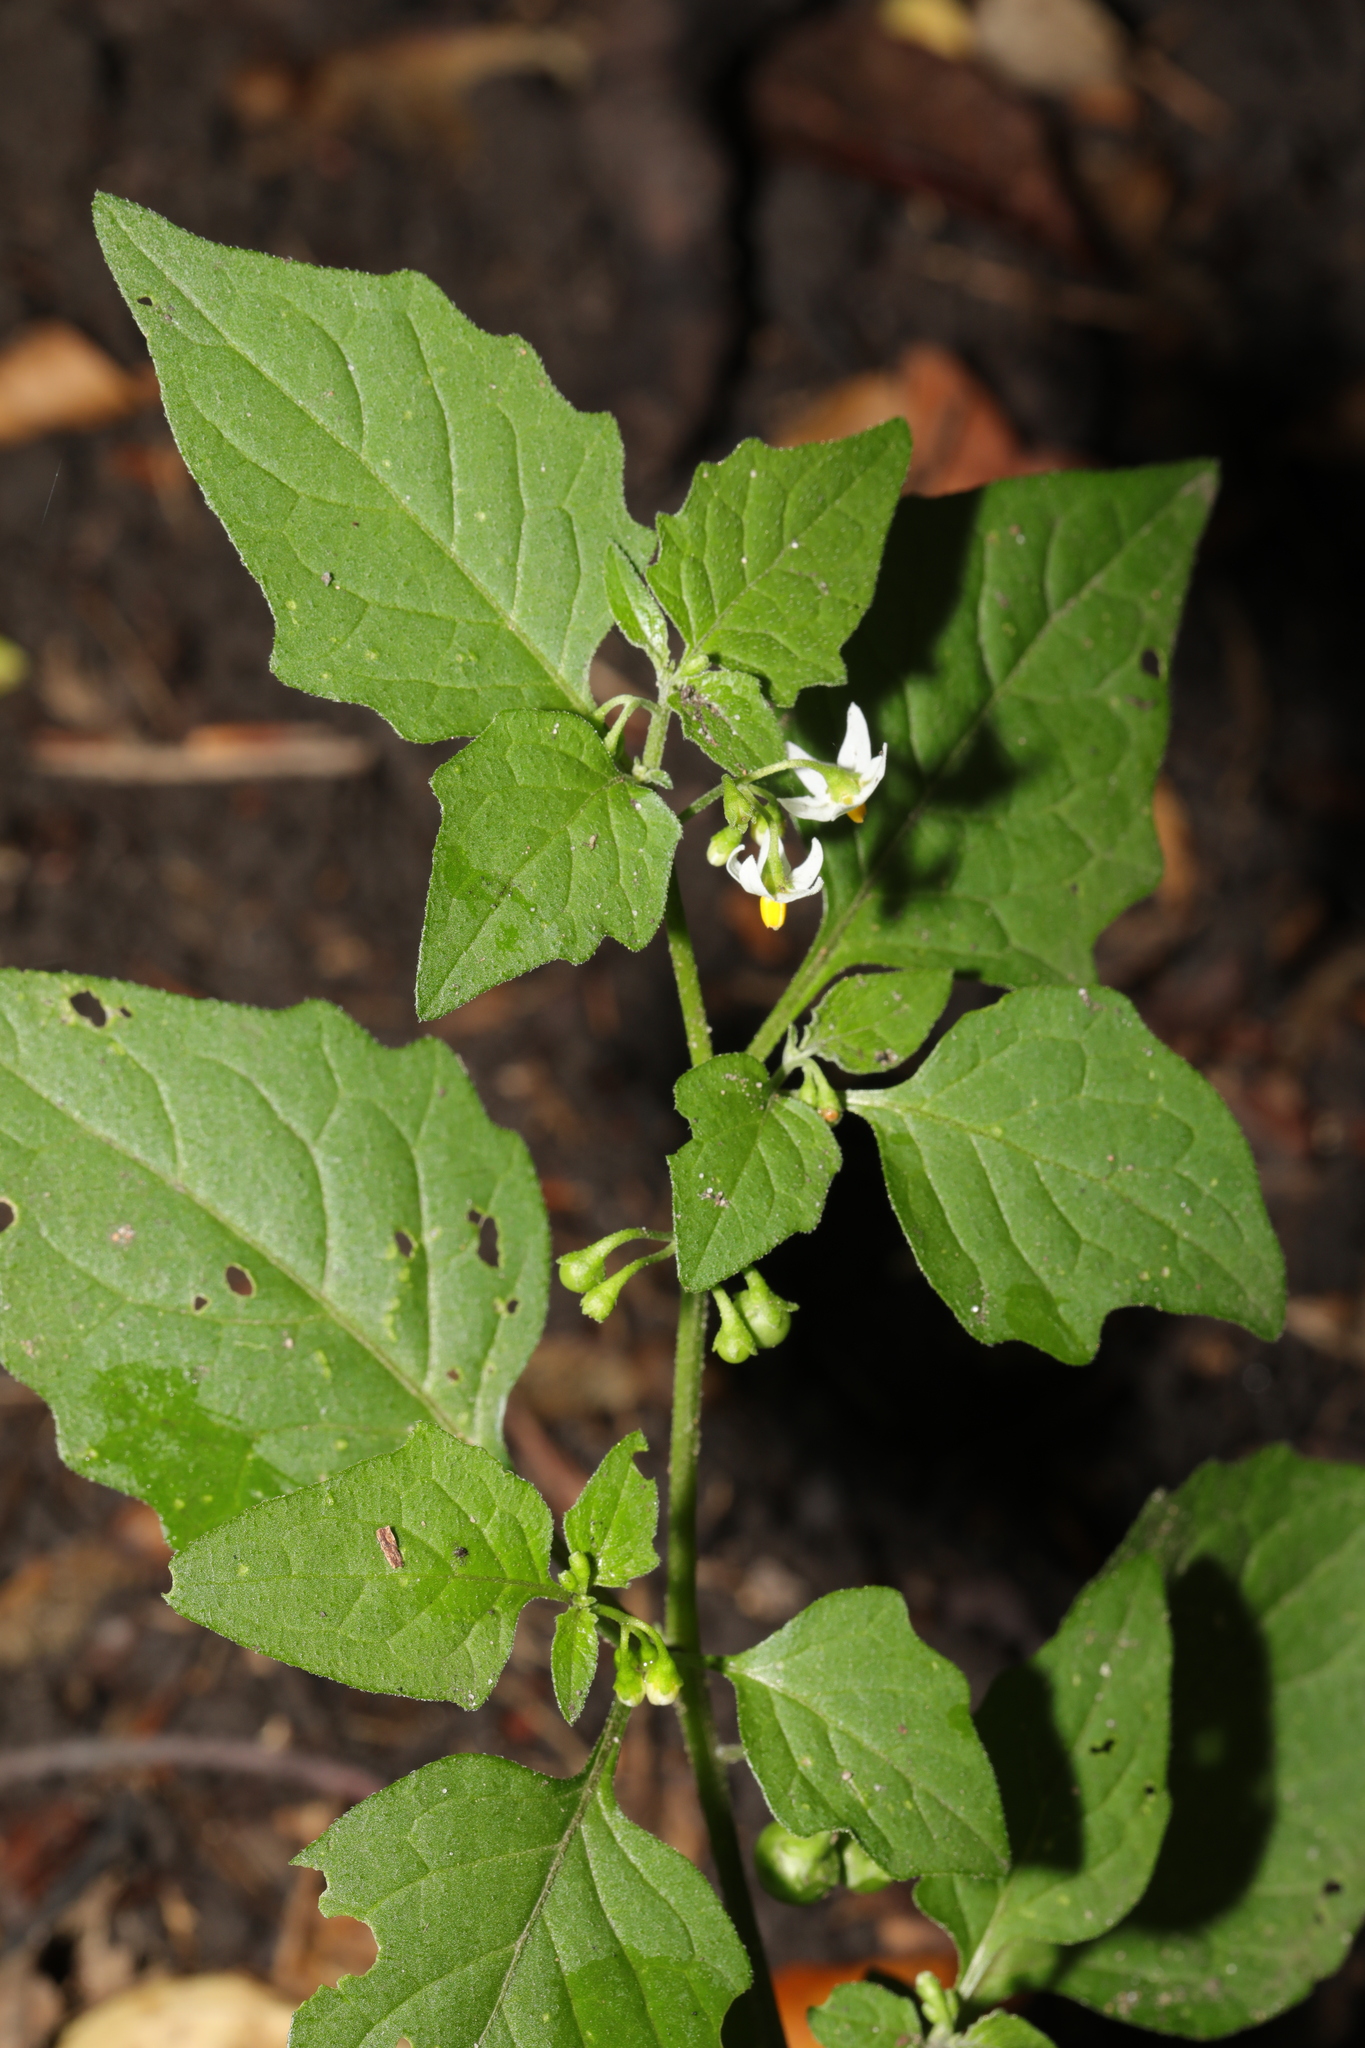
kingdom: Plantae
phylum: Tracheophyta
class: Magnoliopsida
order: Solanales
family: Solanaceae
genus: Solanum
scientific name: Solanum nigrum
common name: Black nightshade
